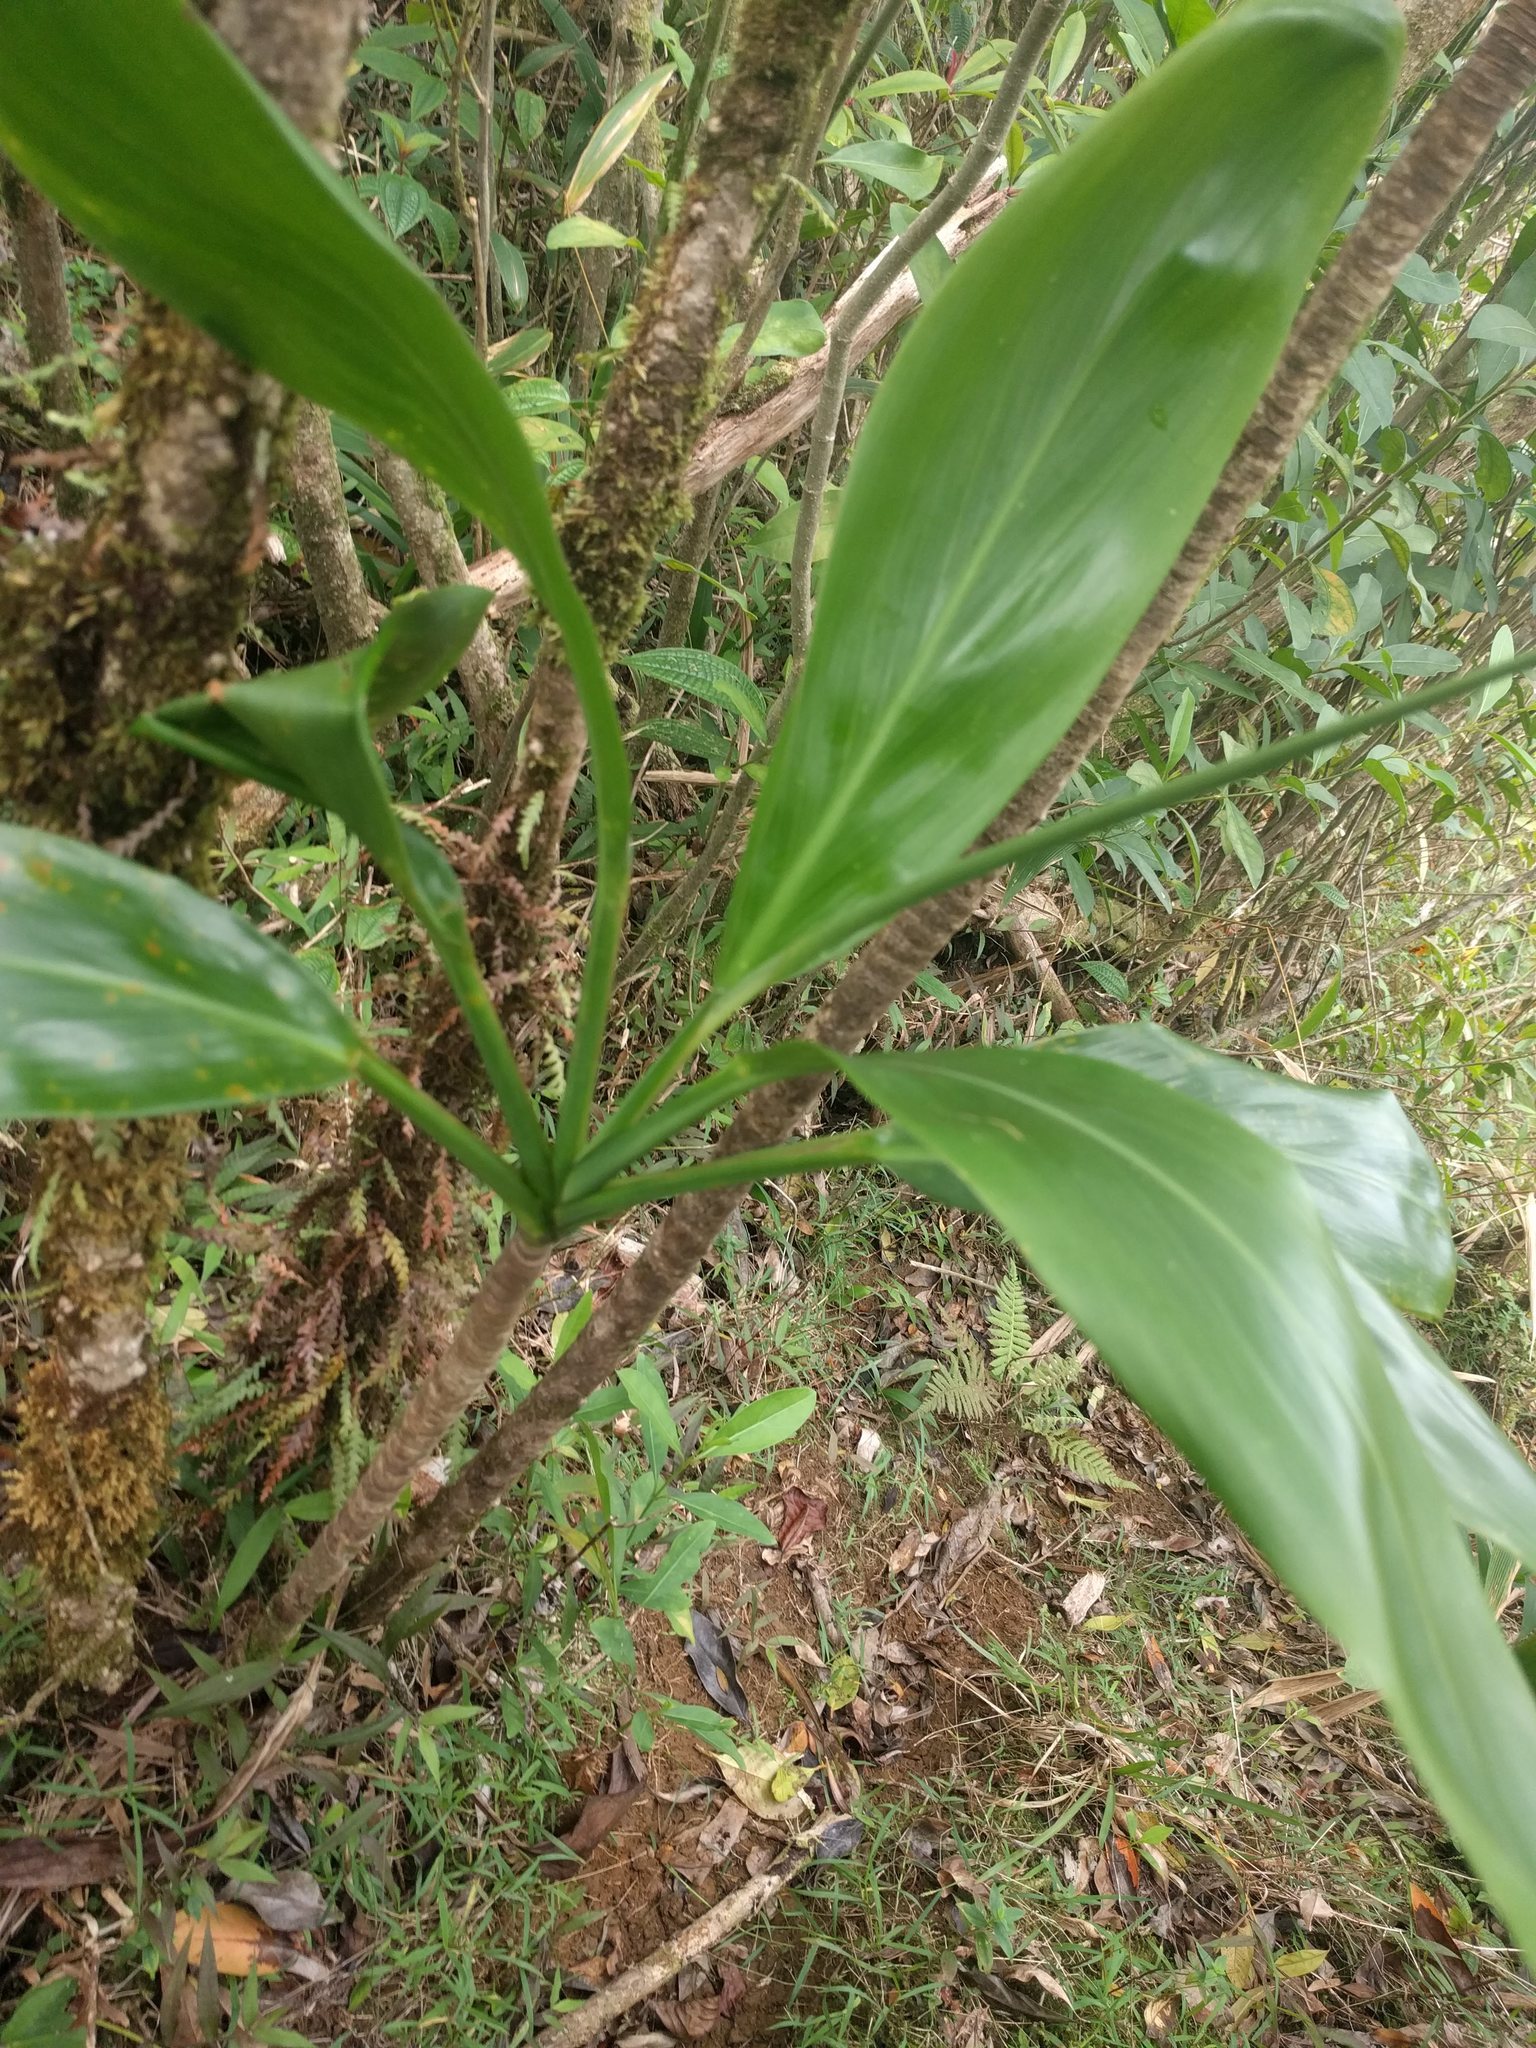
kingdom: Plantae
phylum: Tracheophyta
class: Liliopsida
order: Asparagales
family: Asparagaceae
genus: Cordyline
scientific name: Cordyline fruticosa
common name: Good-luck-plant
